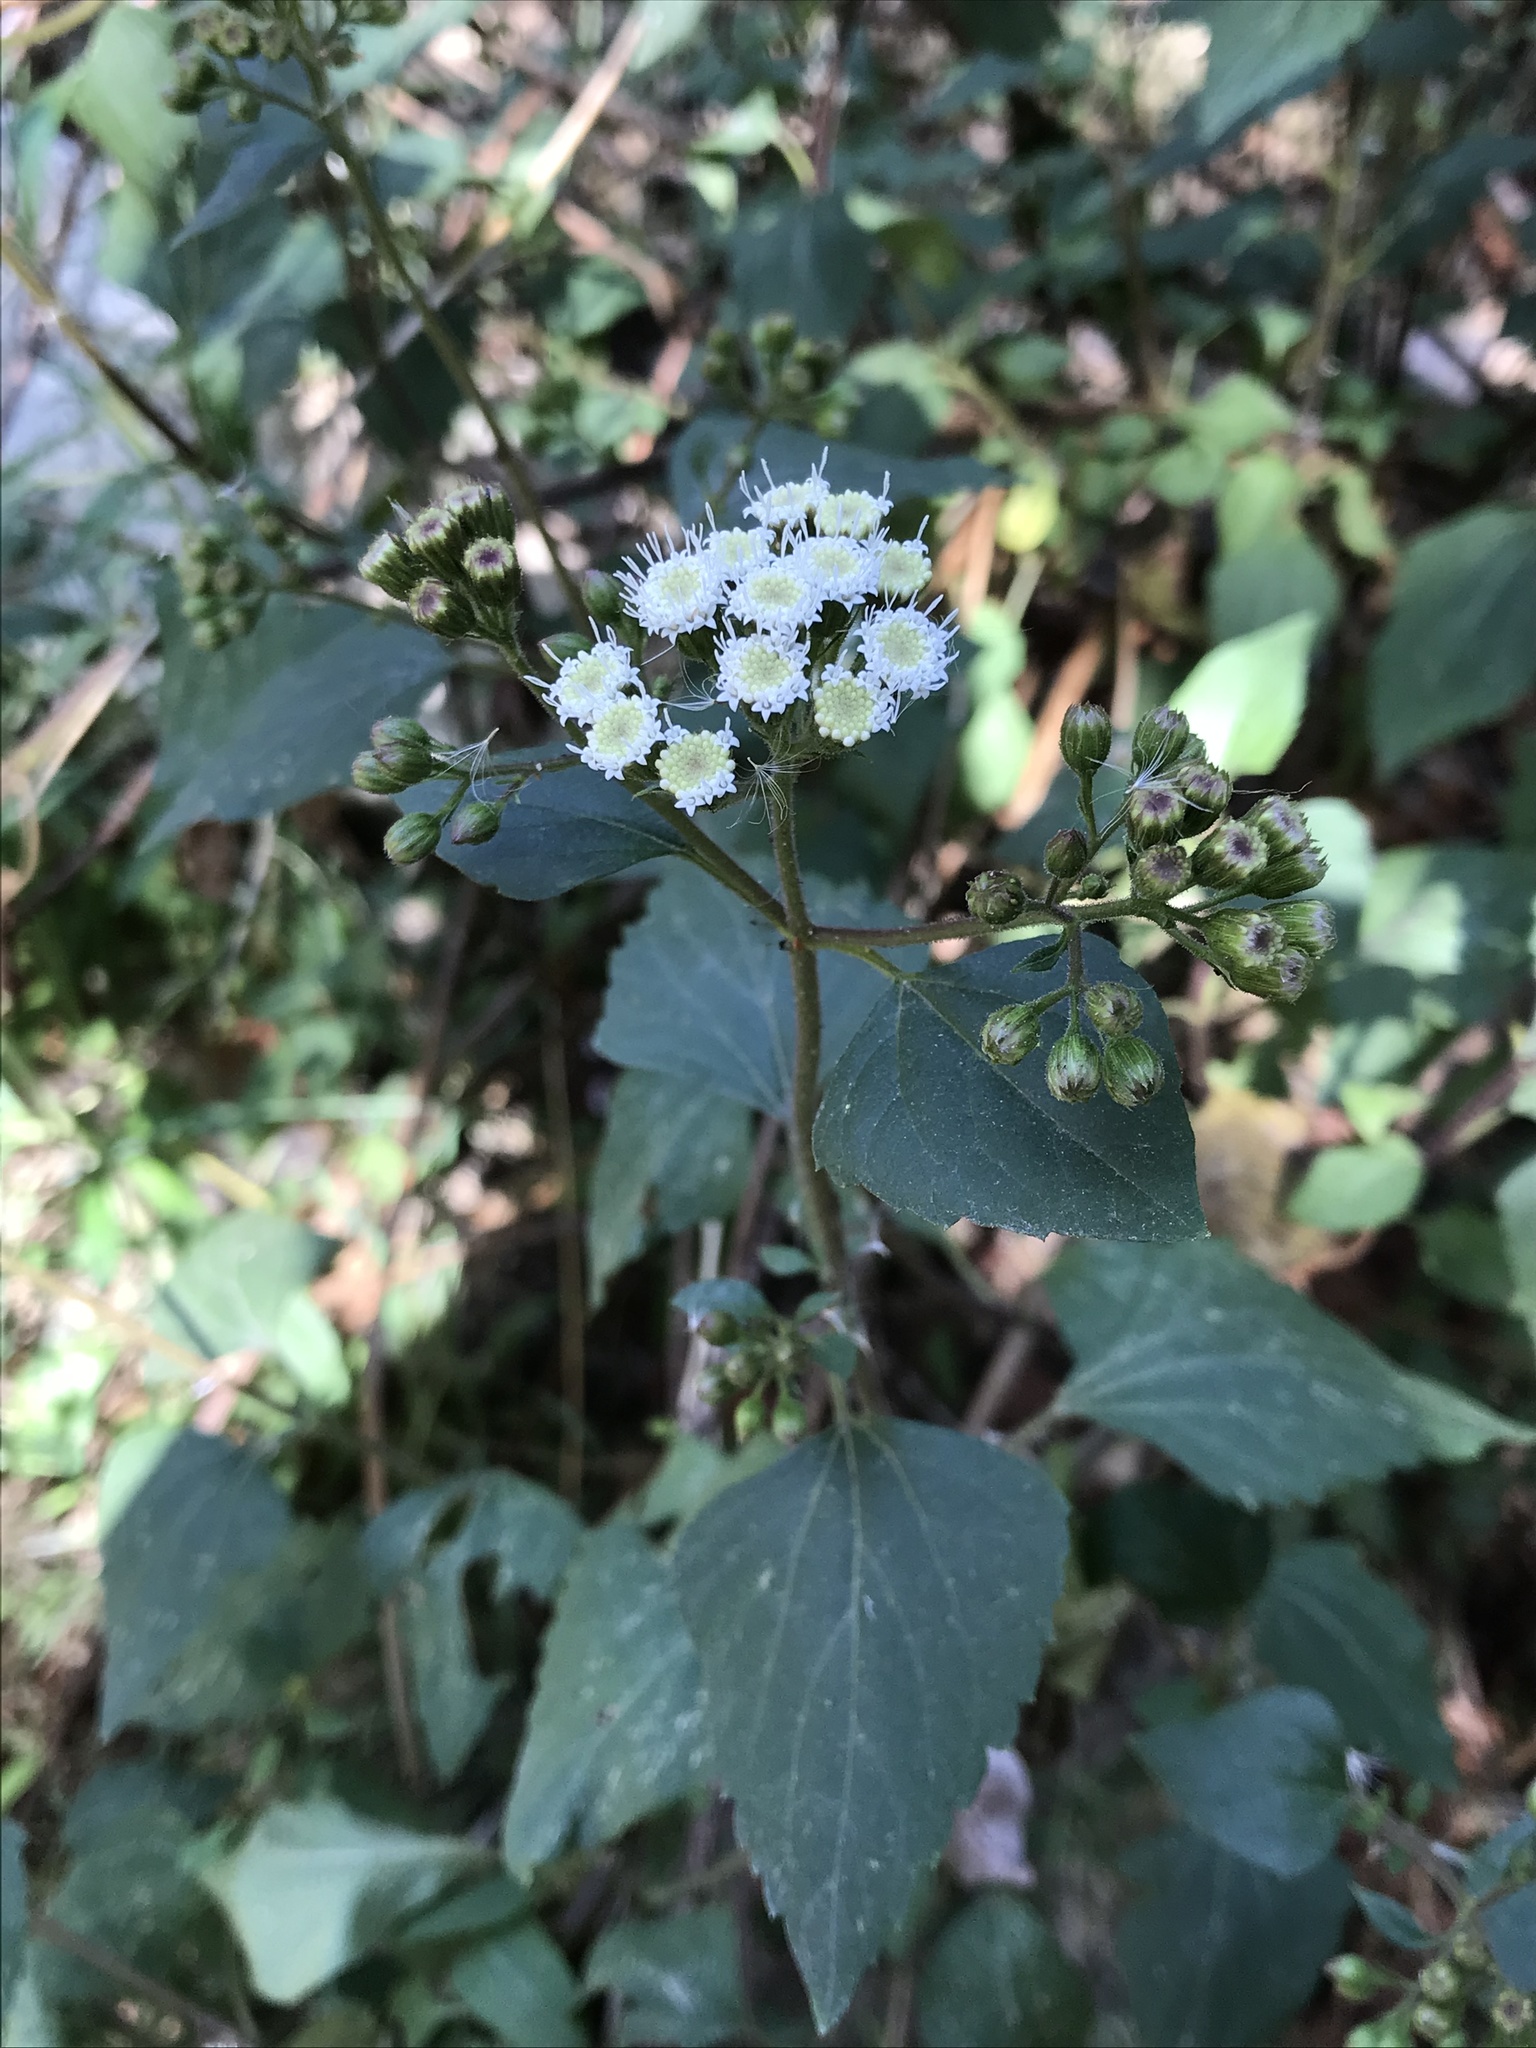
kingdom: Plantae
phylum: Tracheophyta
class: Magnoliopsida
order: Asterales
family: Asteraceae
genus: Ageratina
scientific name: Ageratina adenophora
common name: Sticky snakeroot
